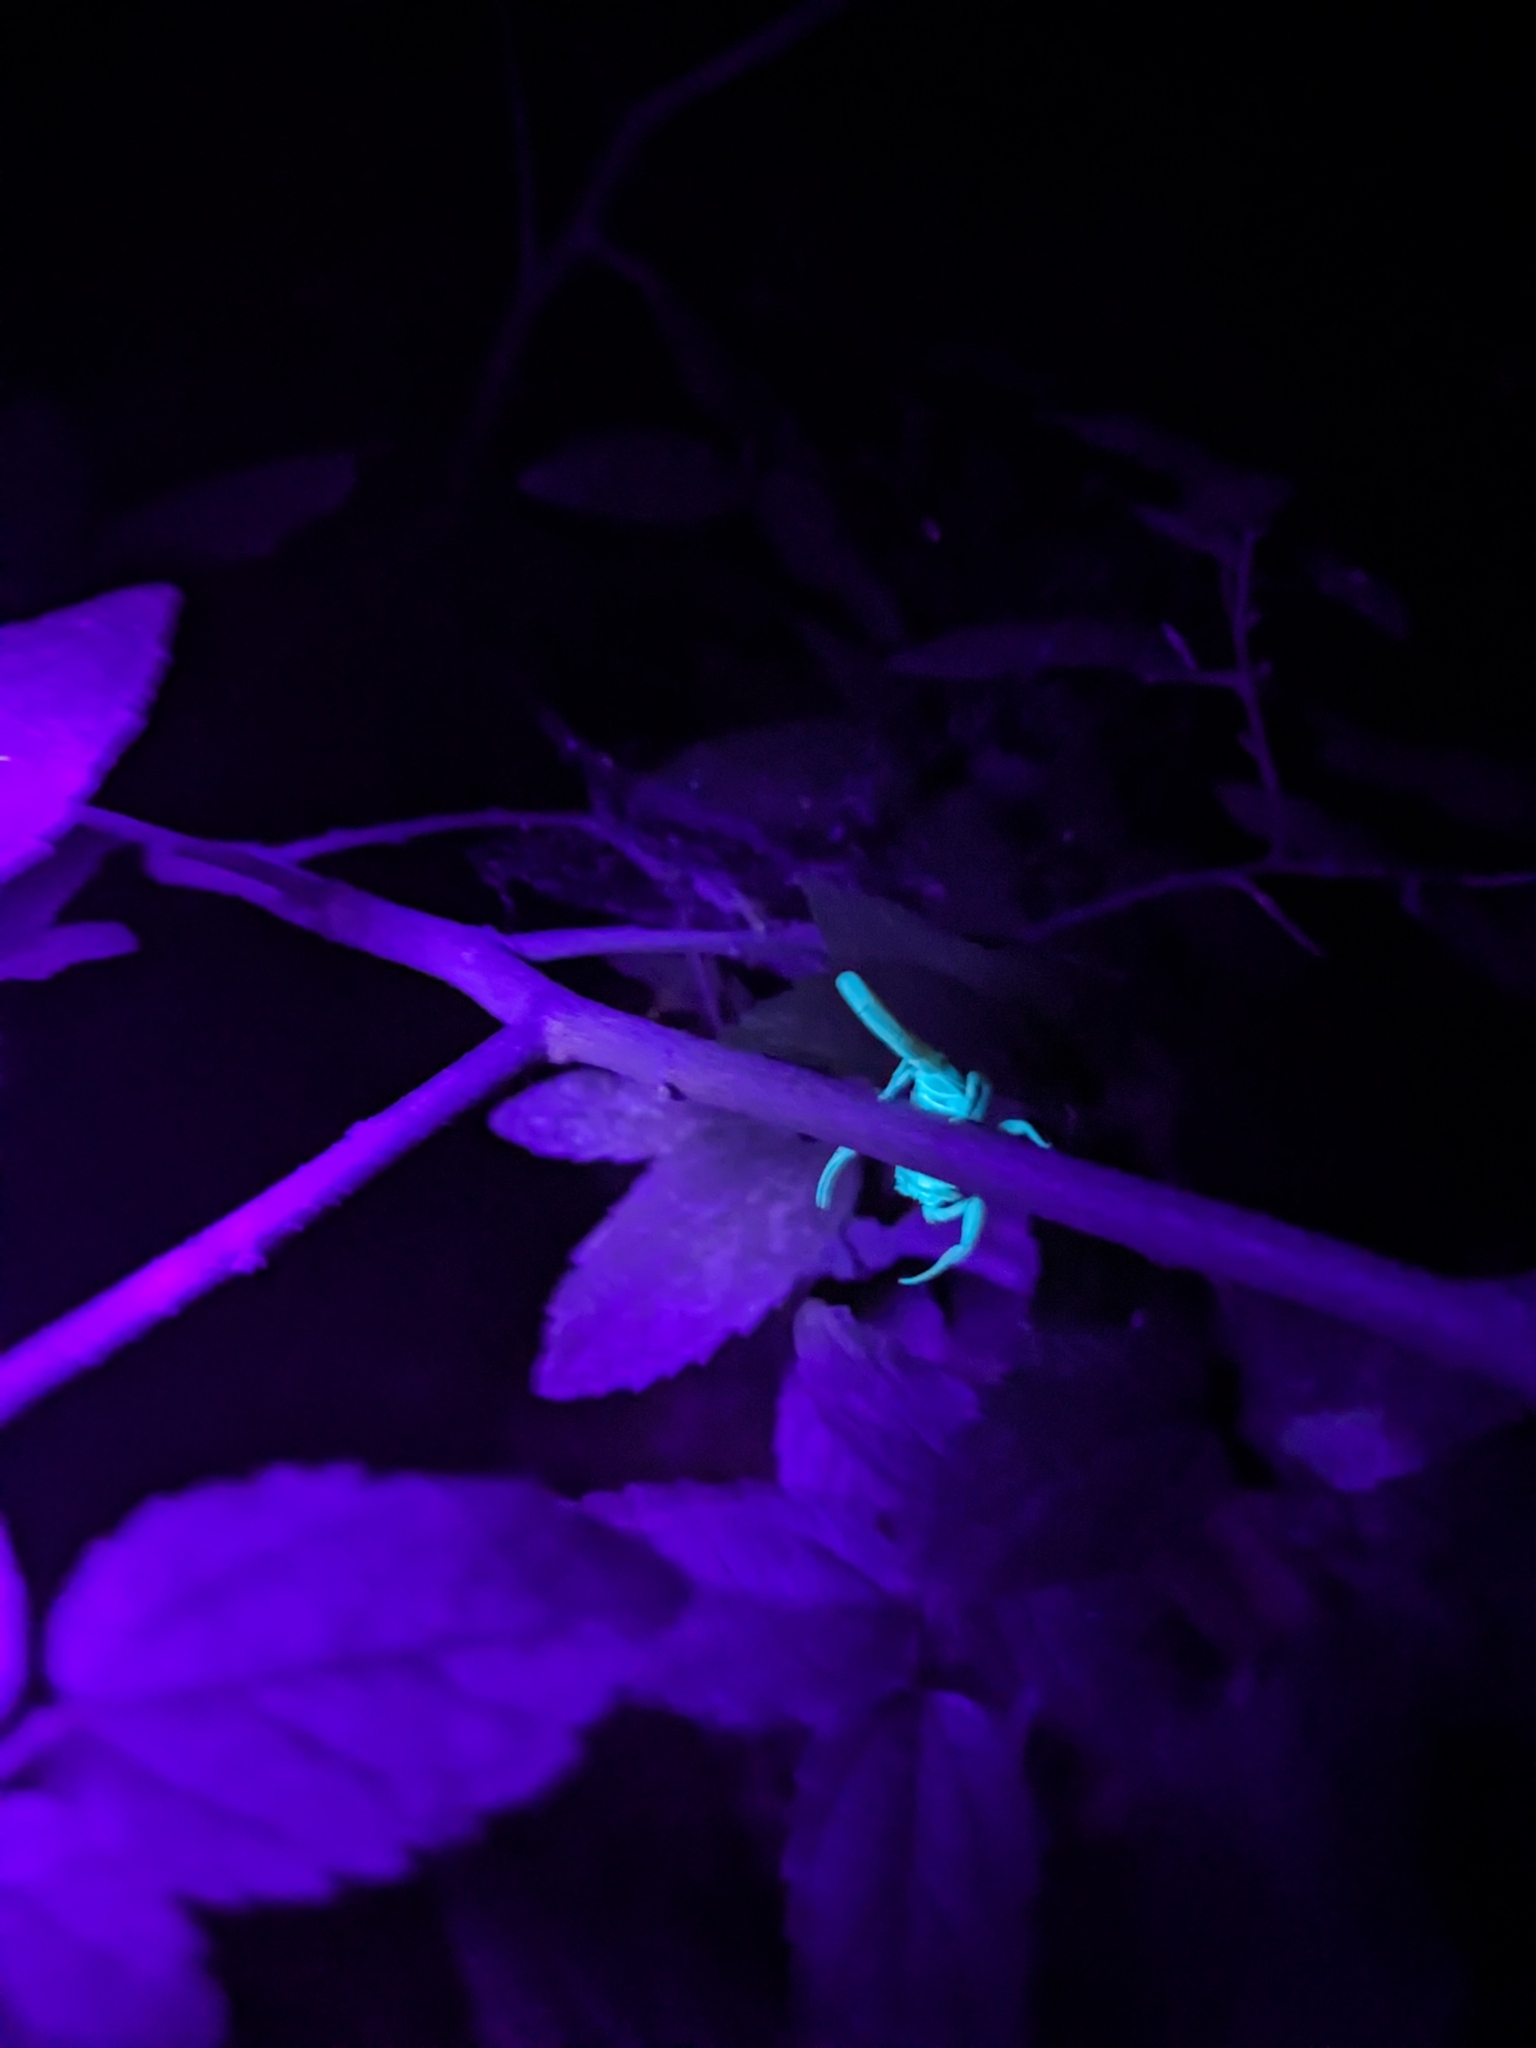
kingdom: Animalia
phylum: Arthropoda
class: Arachnida
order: Scorpiones
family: Buthidae
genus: Centruroides
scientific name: Centruroides sculpturatus
